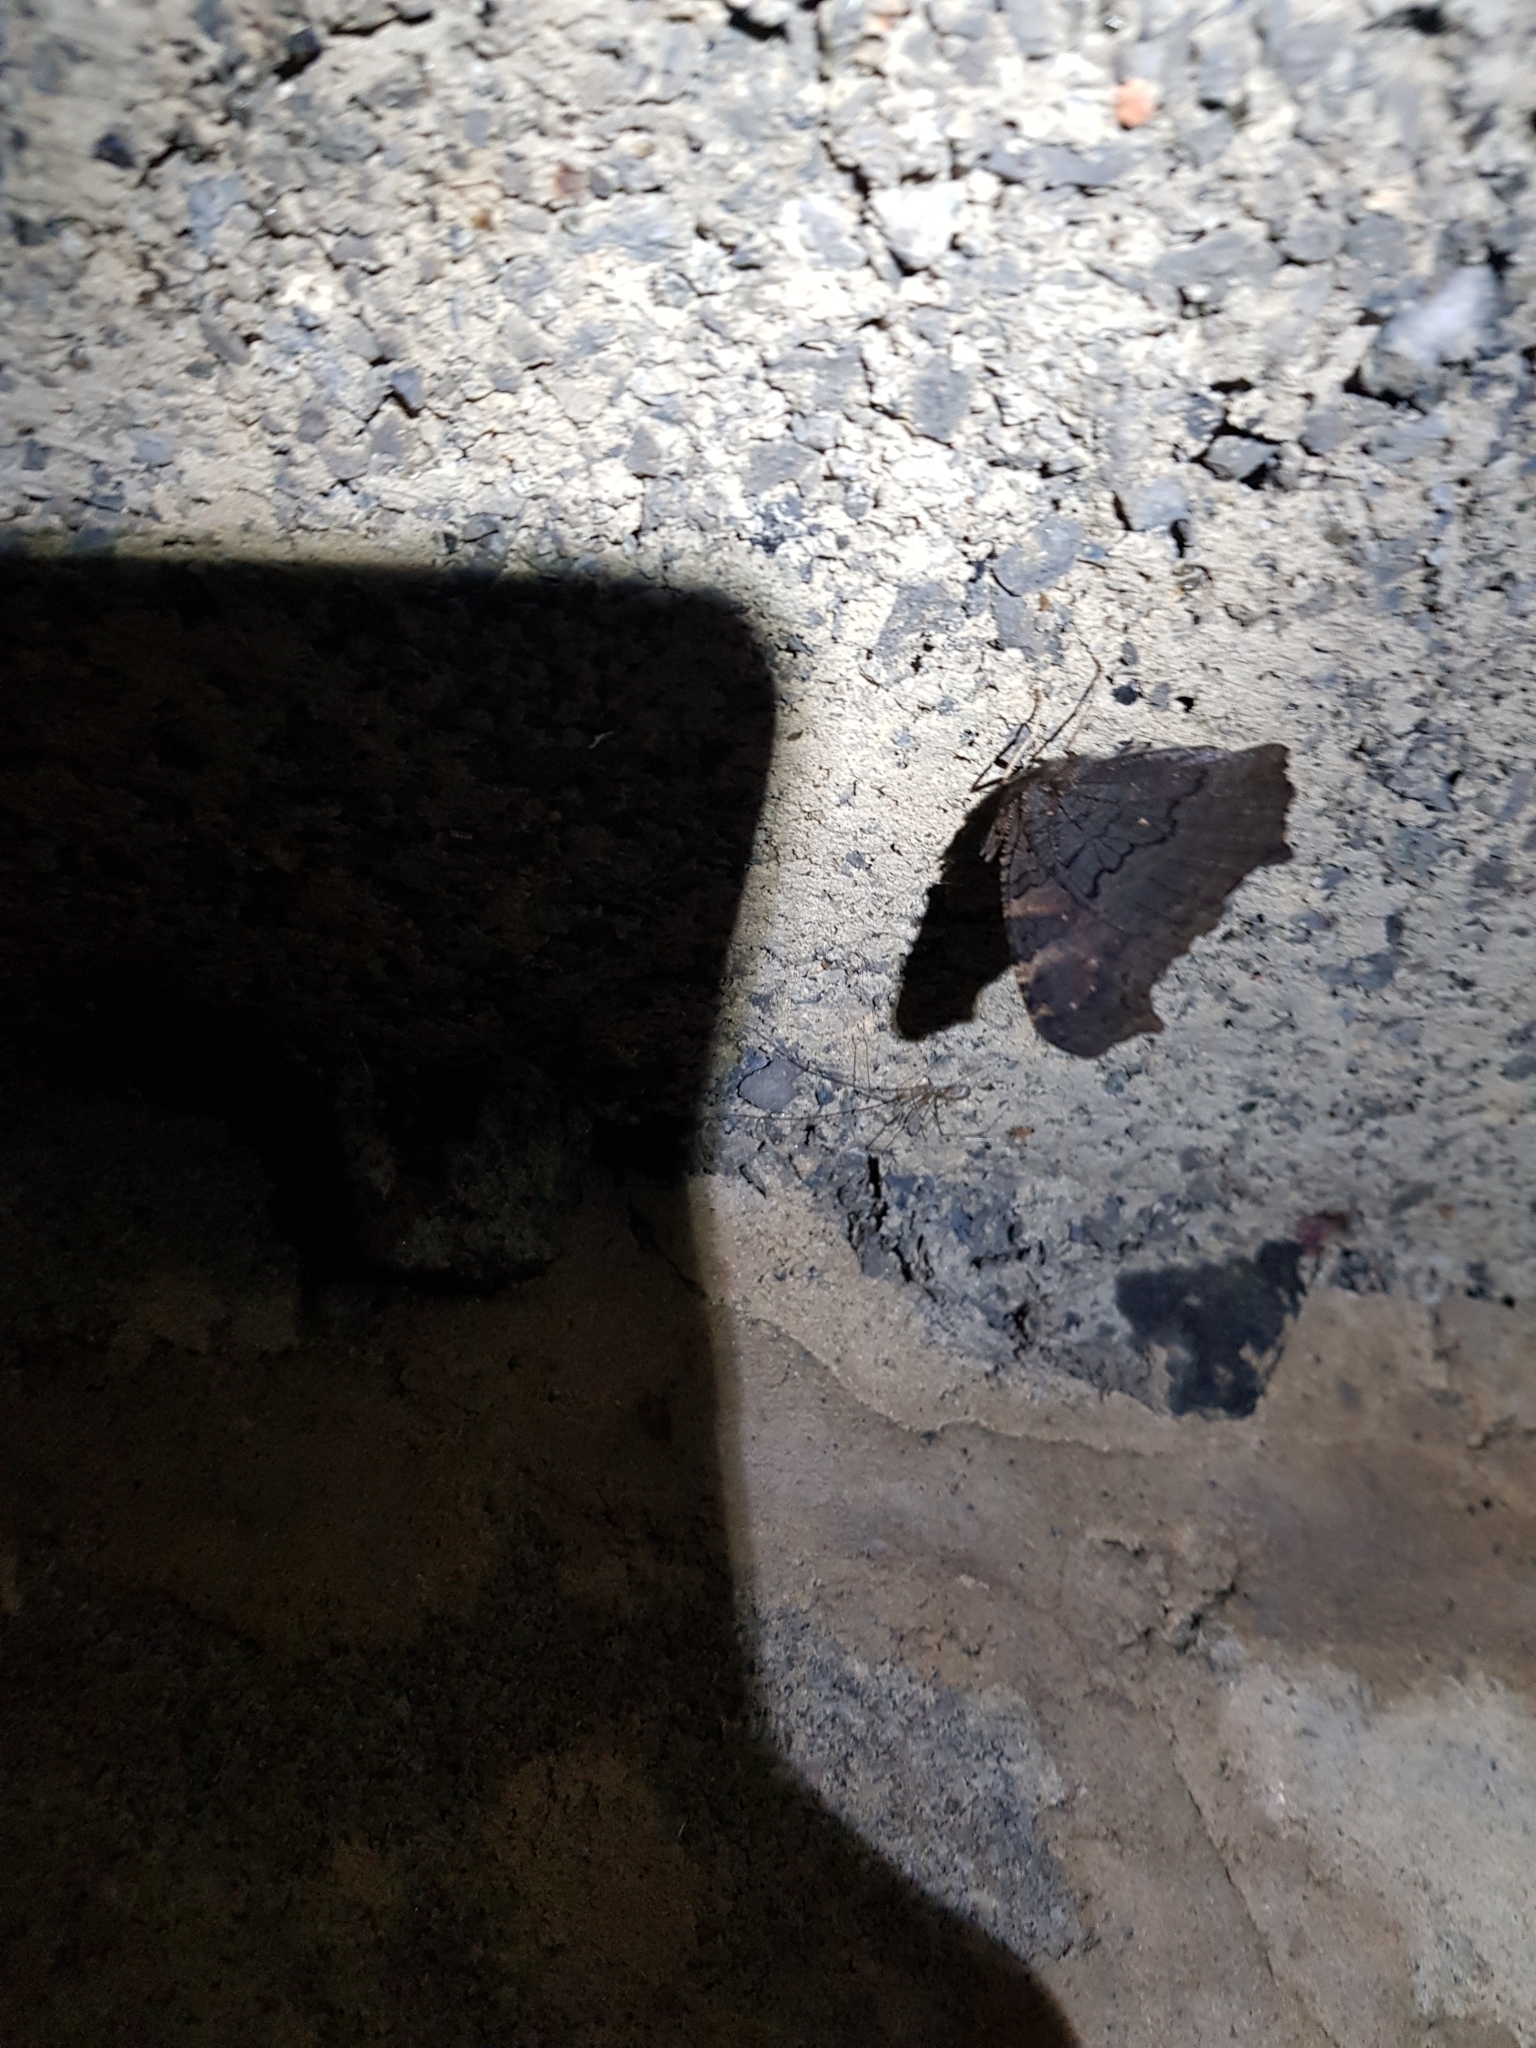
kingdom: Animalia
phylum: Arthropoda
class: Insecta
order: Lepidoptera
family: Nymphalidae
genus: Aglais
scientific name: Aglais io
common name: Peacock
